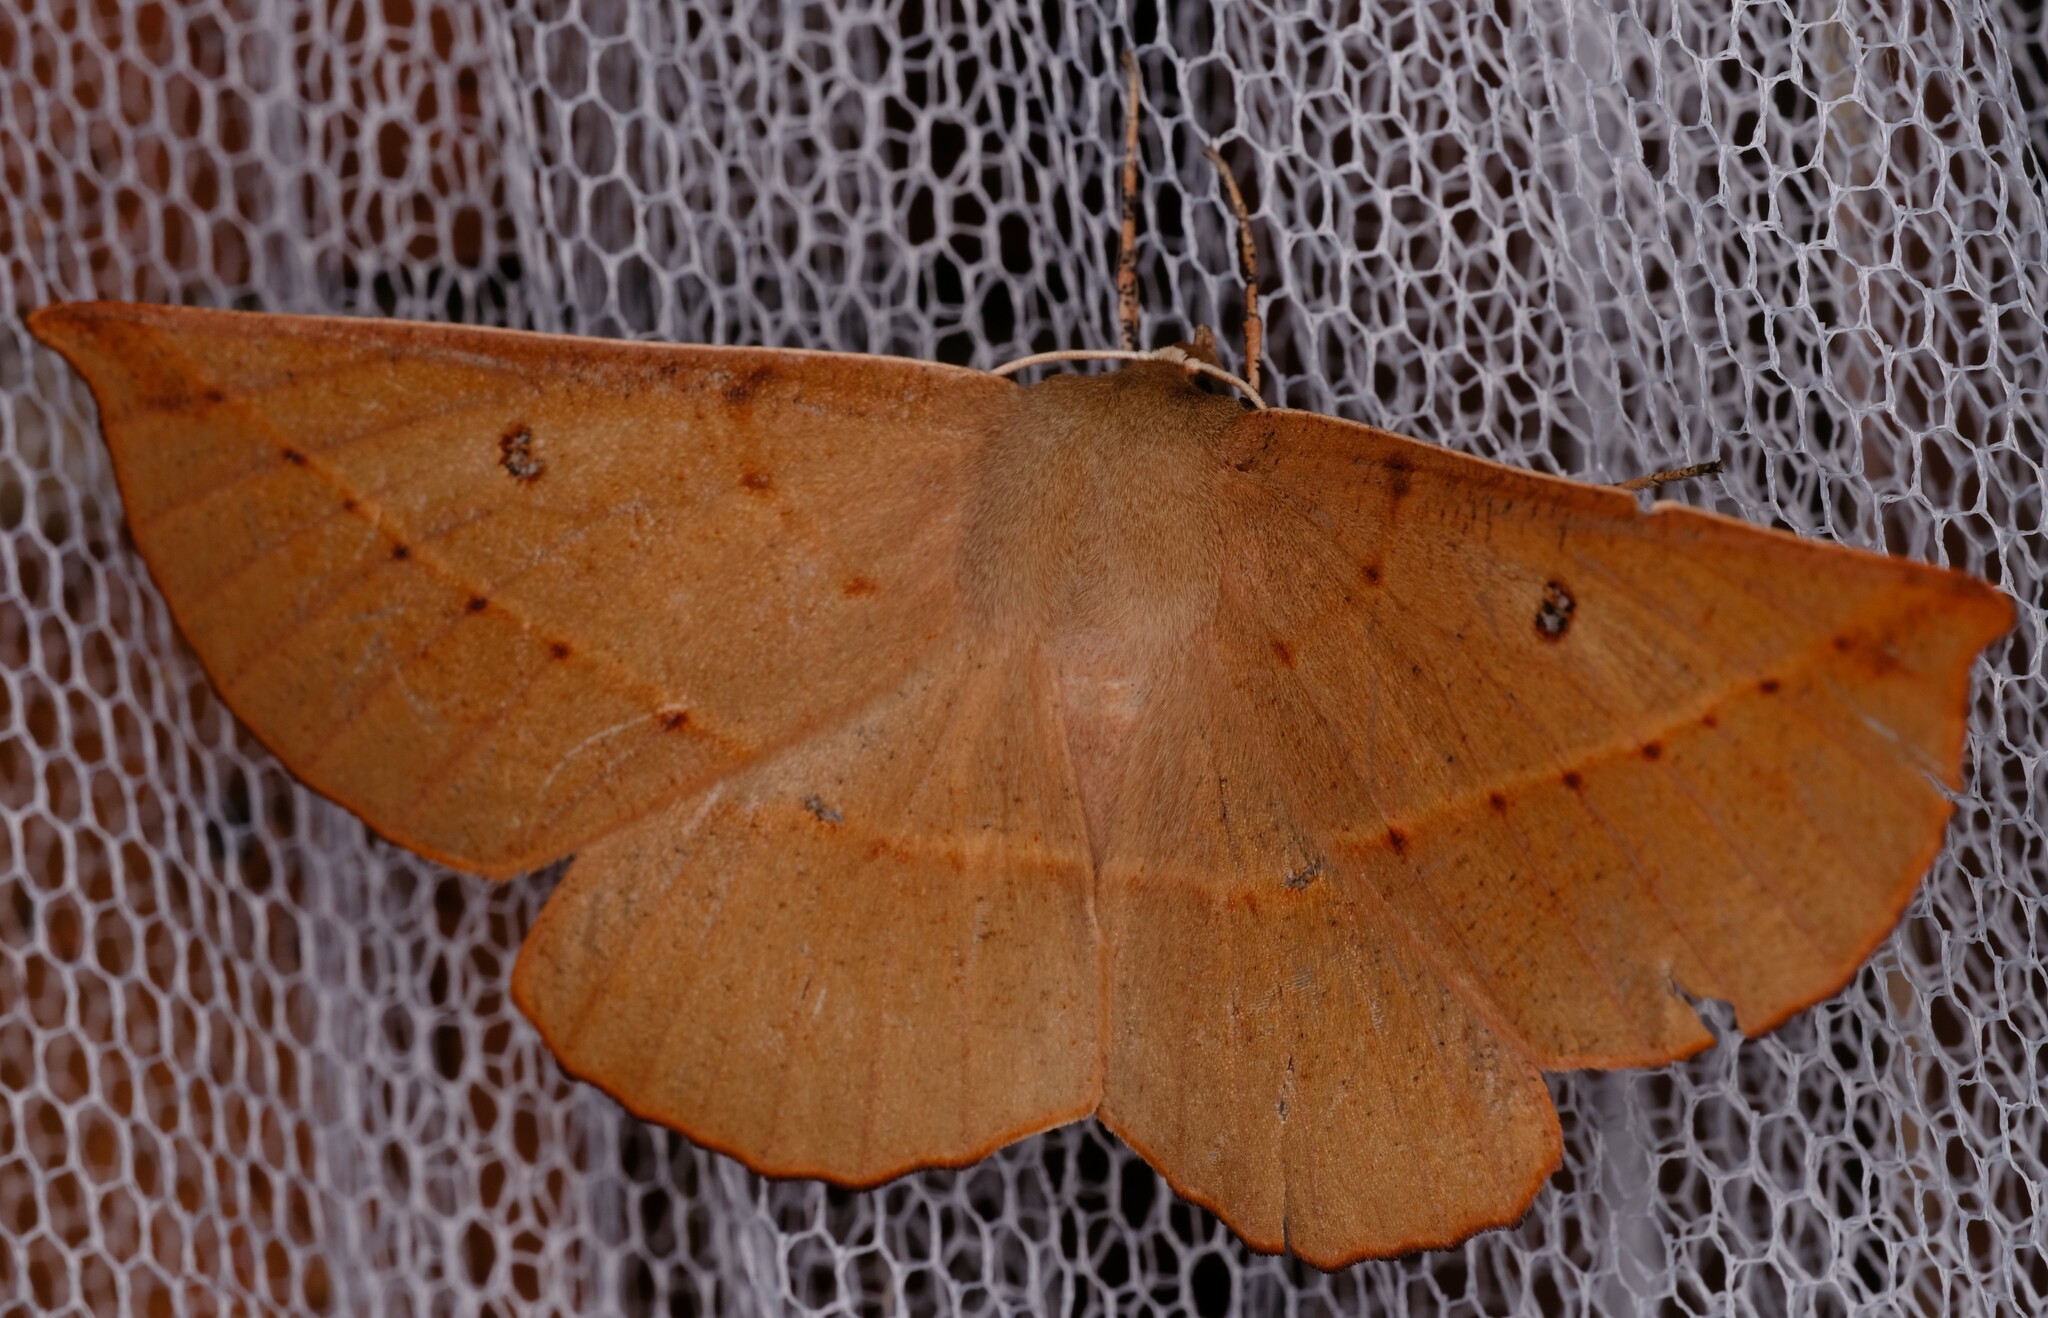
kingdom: Animalia
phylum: Arthropoda
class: Insecta
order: Lepidoptera
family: Geometridae
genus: Phallaria
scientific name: Phallaria ophiusaria
